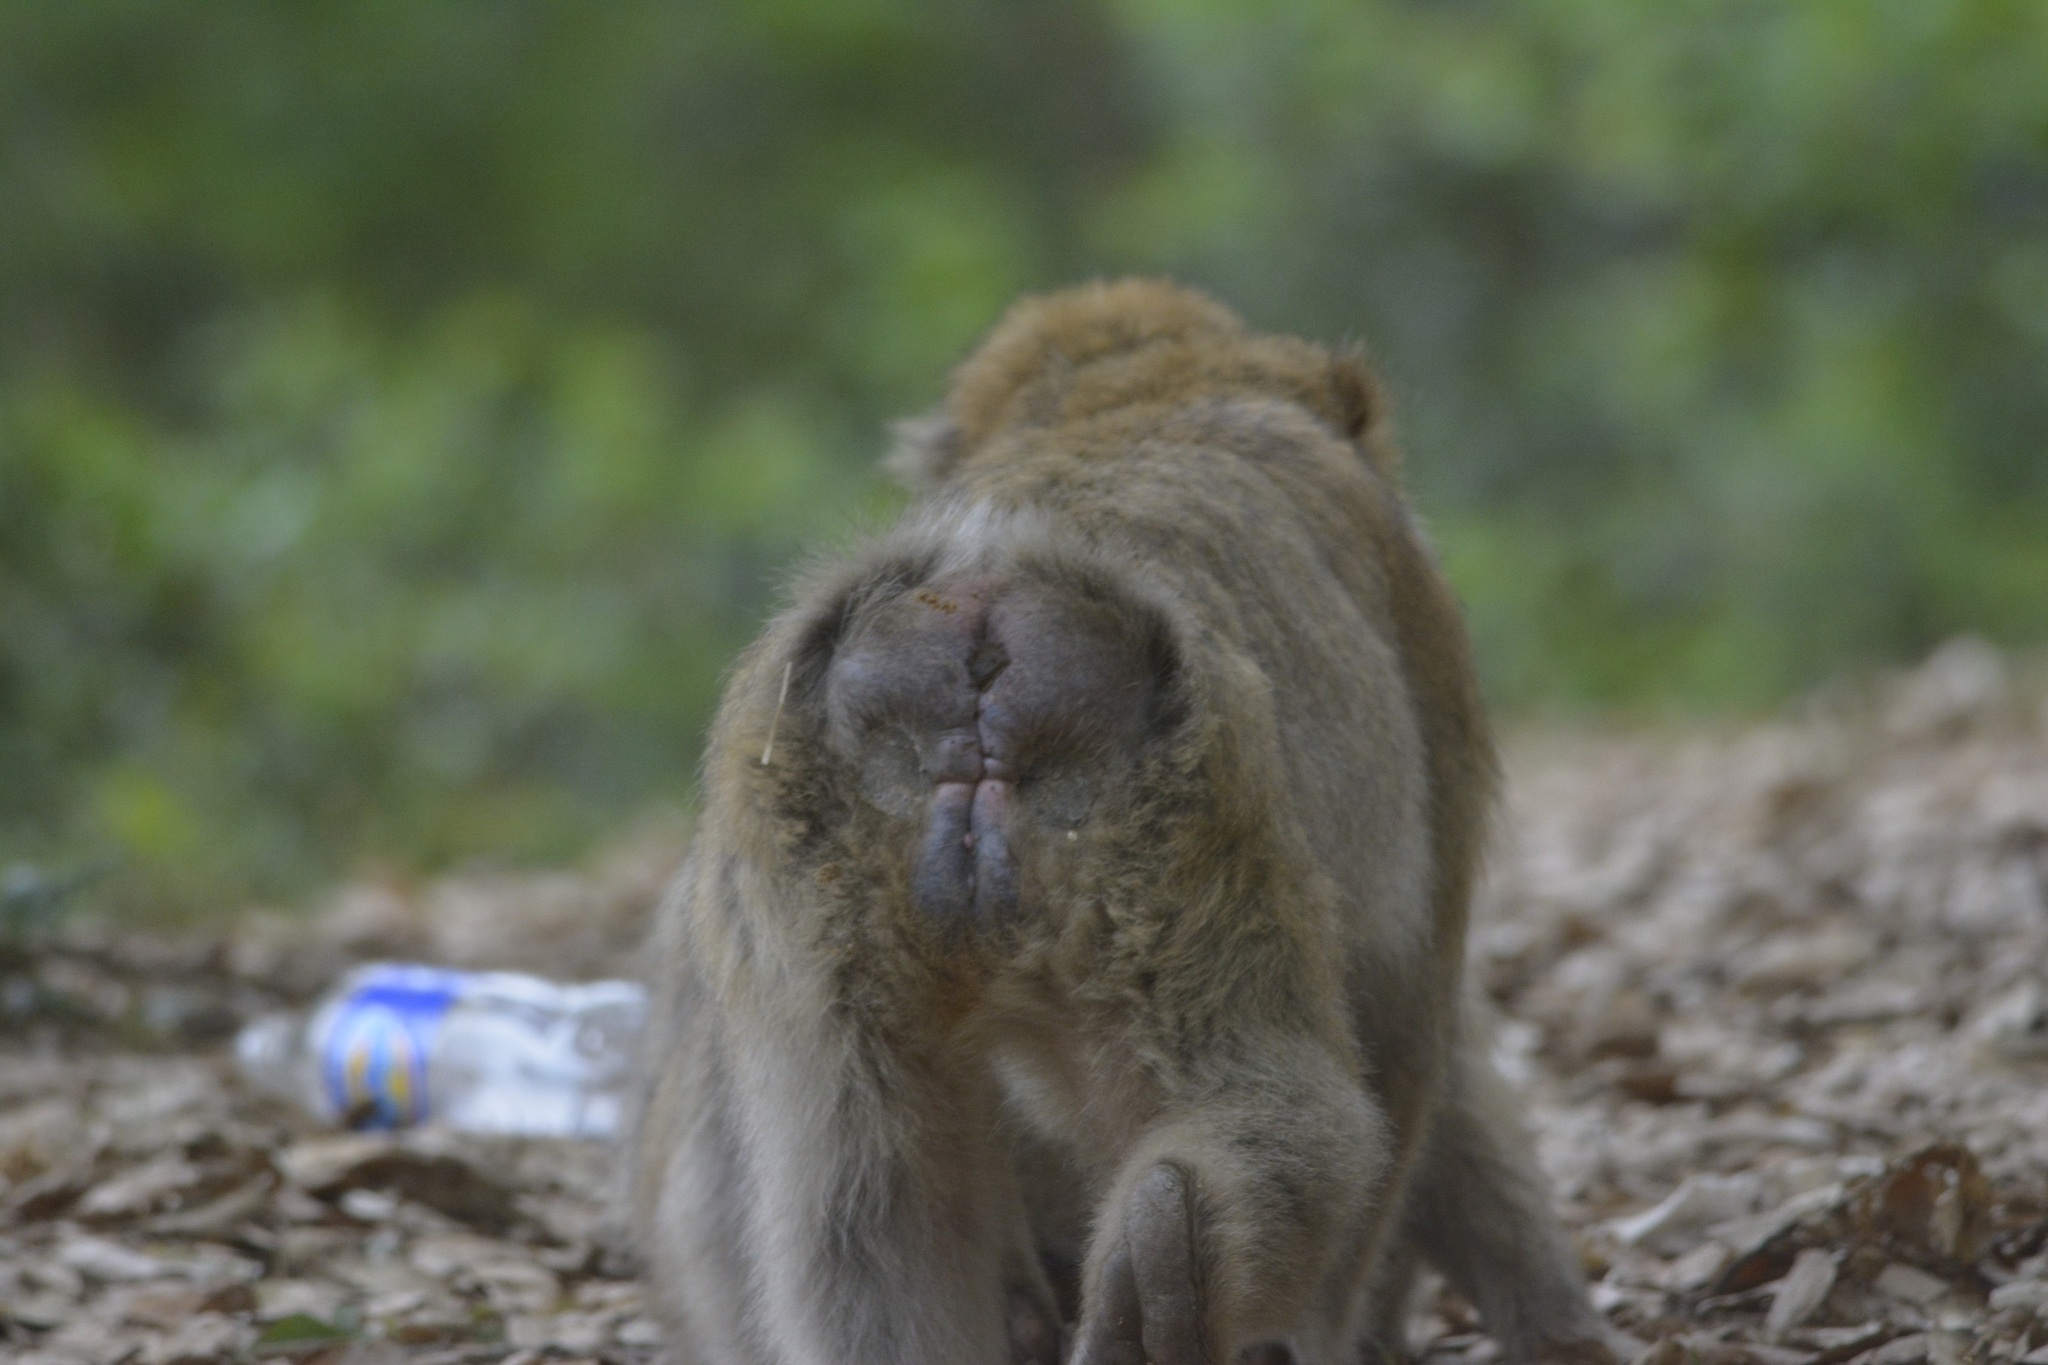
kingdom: Animalia
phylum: Chordata
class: Mammalia
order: Primates
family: Cercopithecidae
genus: Macaca
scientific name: Macaca sylvanus
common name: Barbary macaque
